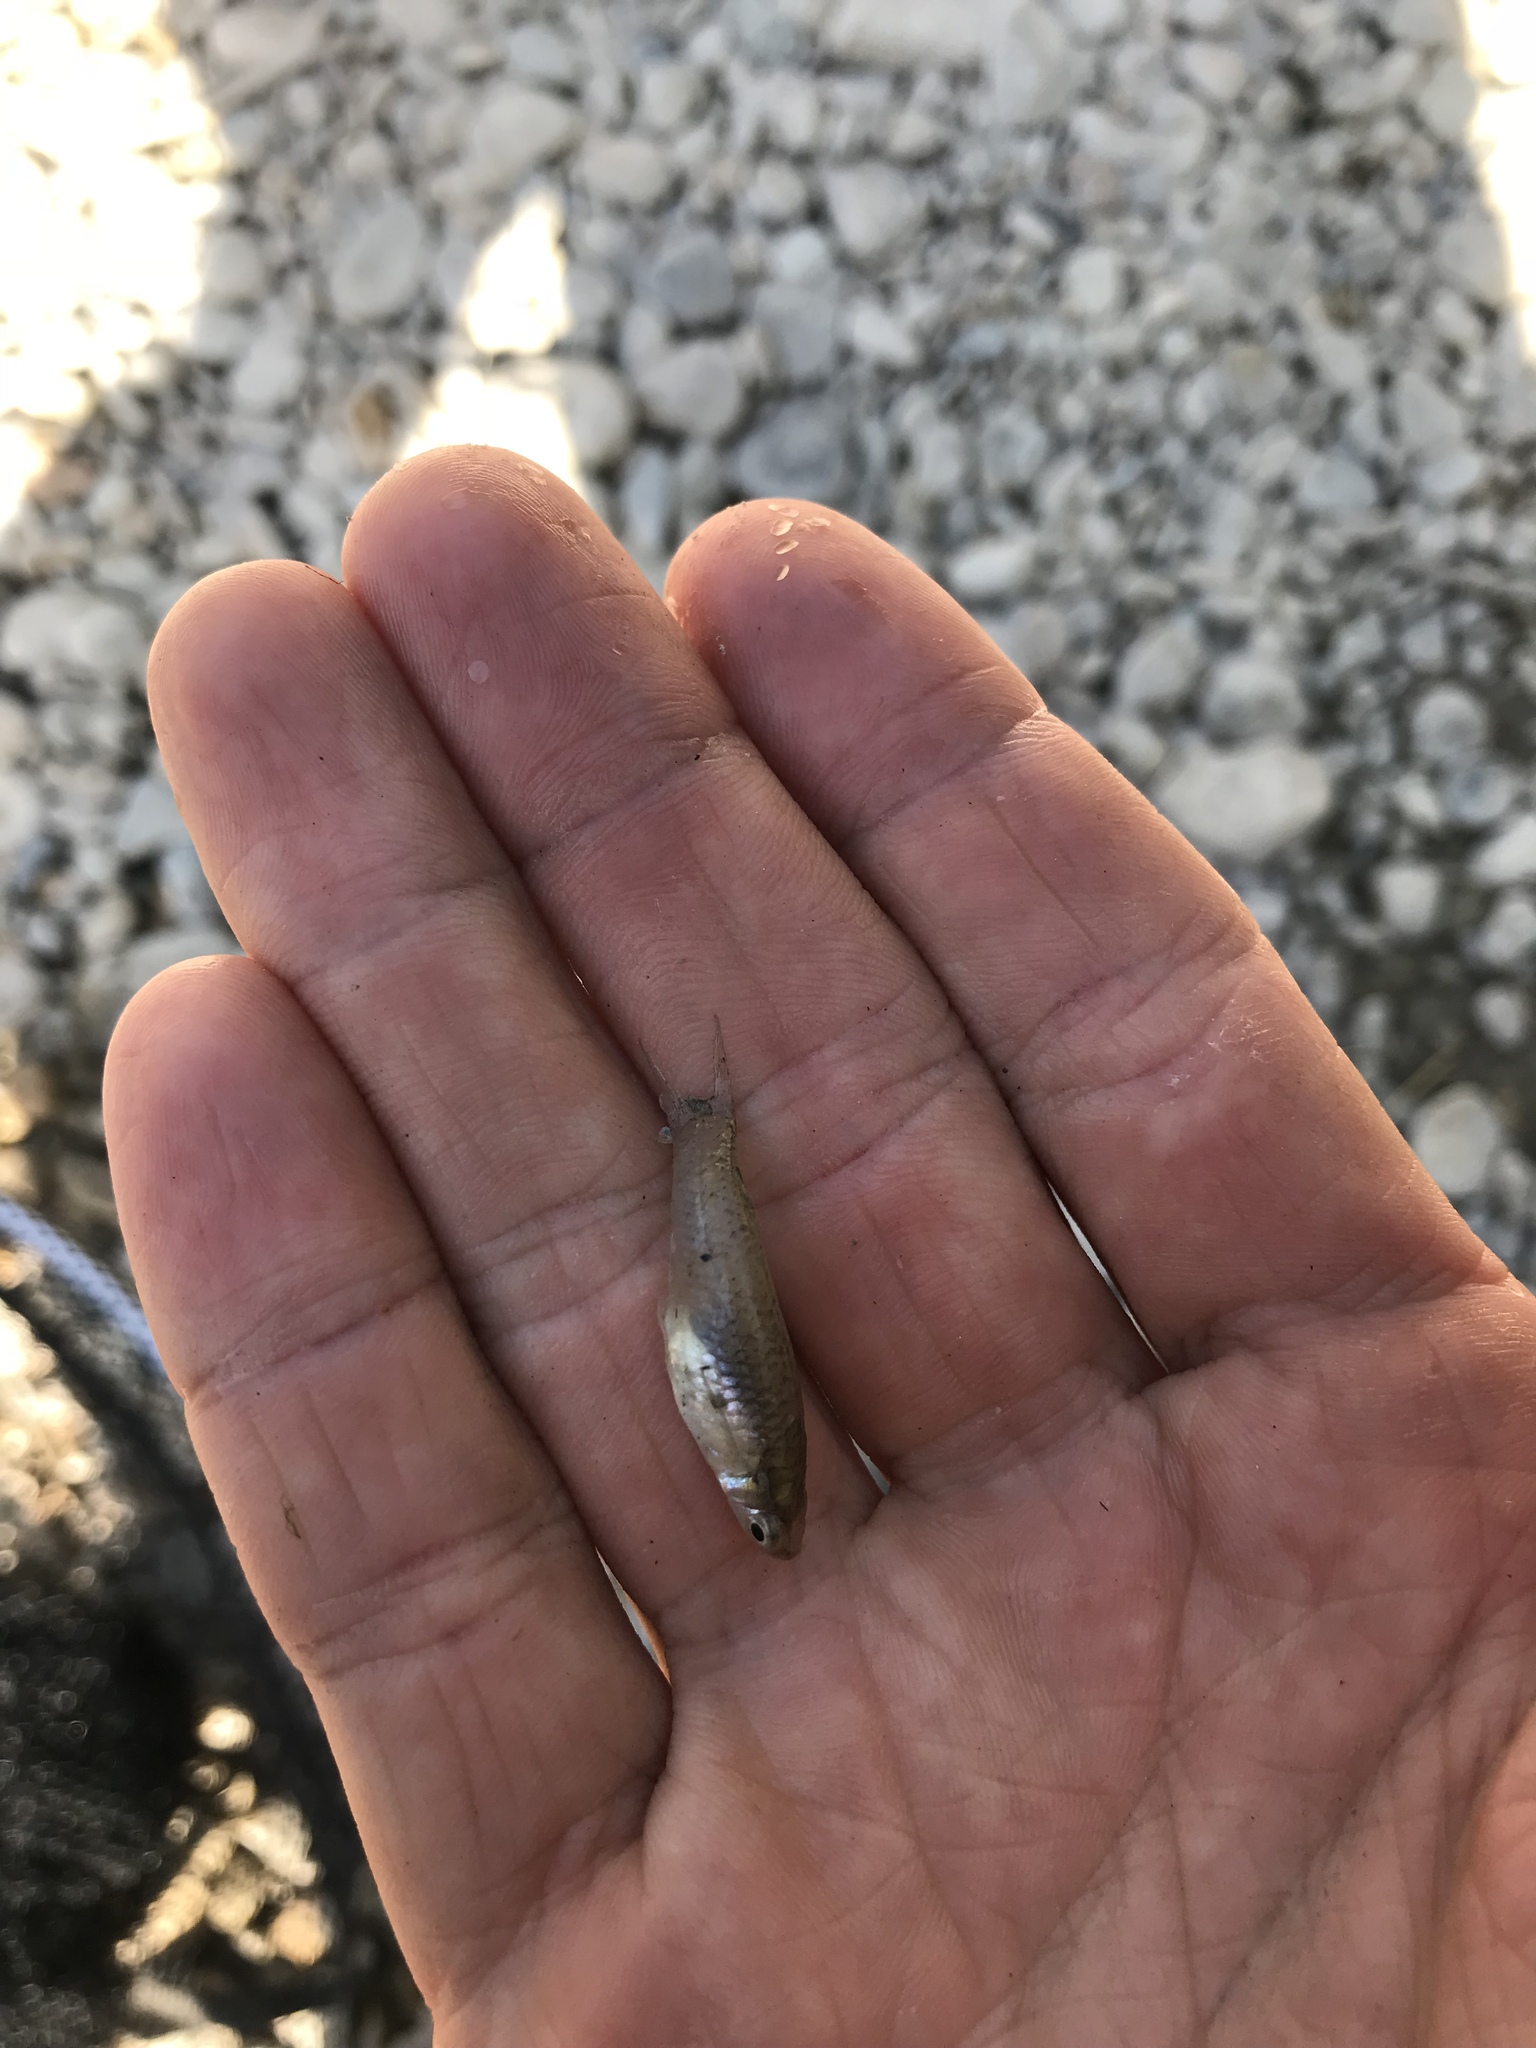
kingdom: Animalia
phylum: Chordata
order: Cyprinodontiformes
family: Poeciliidae
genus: Gambusia
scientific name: Gambusia affinis
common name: Mosquitofish
